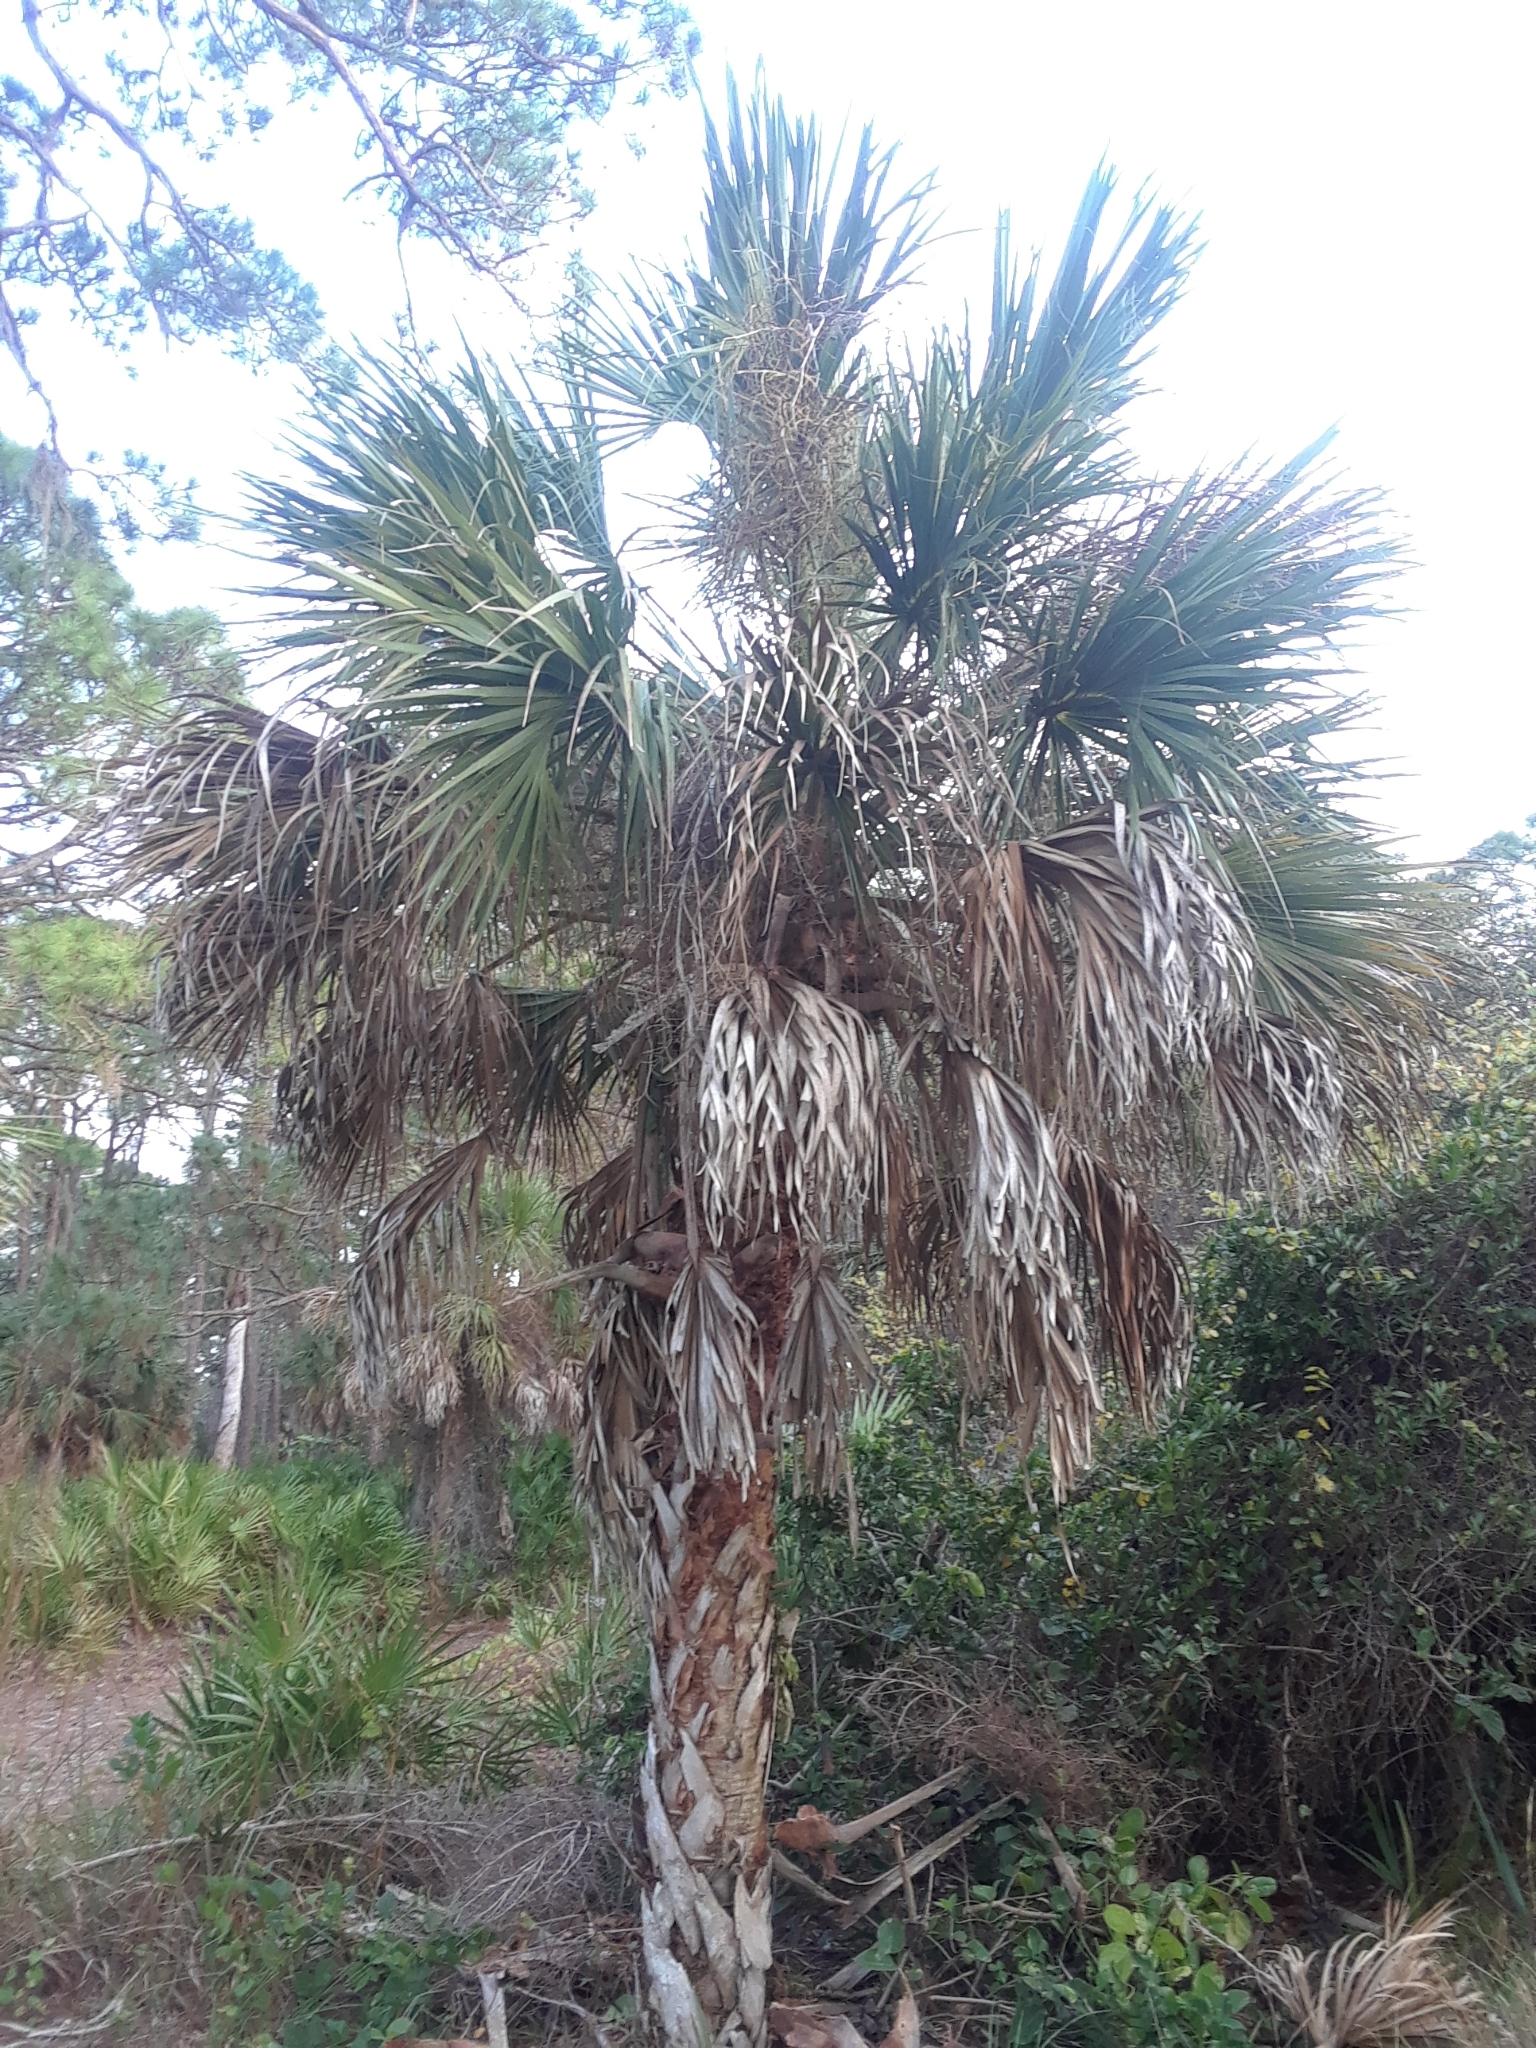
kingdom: Plantae
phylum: Tracheophyta
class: Liliopsida
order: Arecales
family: Arecaceae
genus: Sabal
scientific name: Sabal palmetto
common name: Blue palmetto
